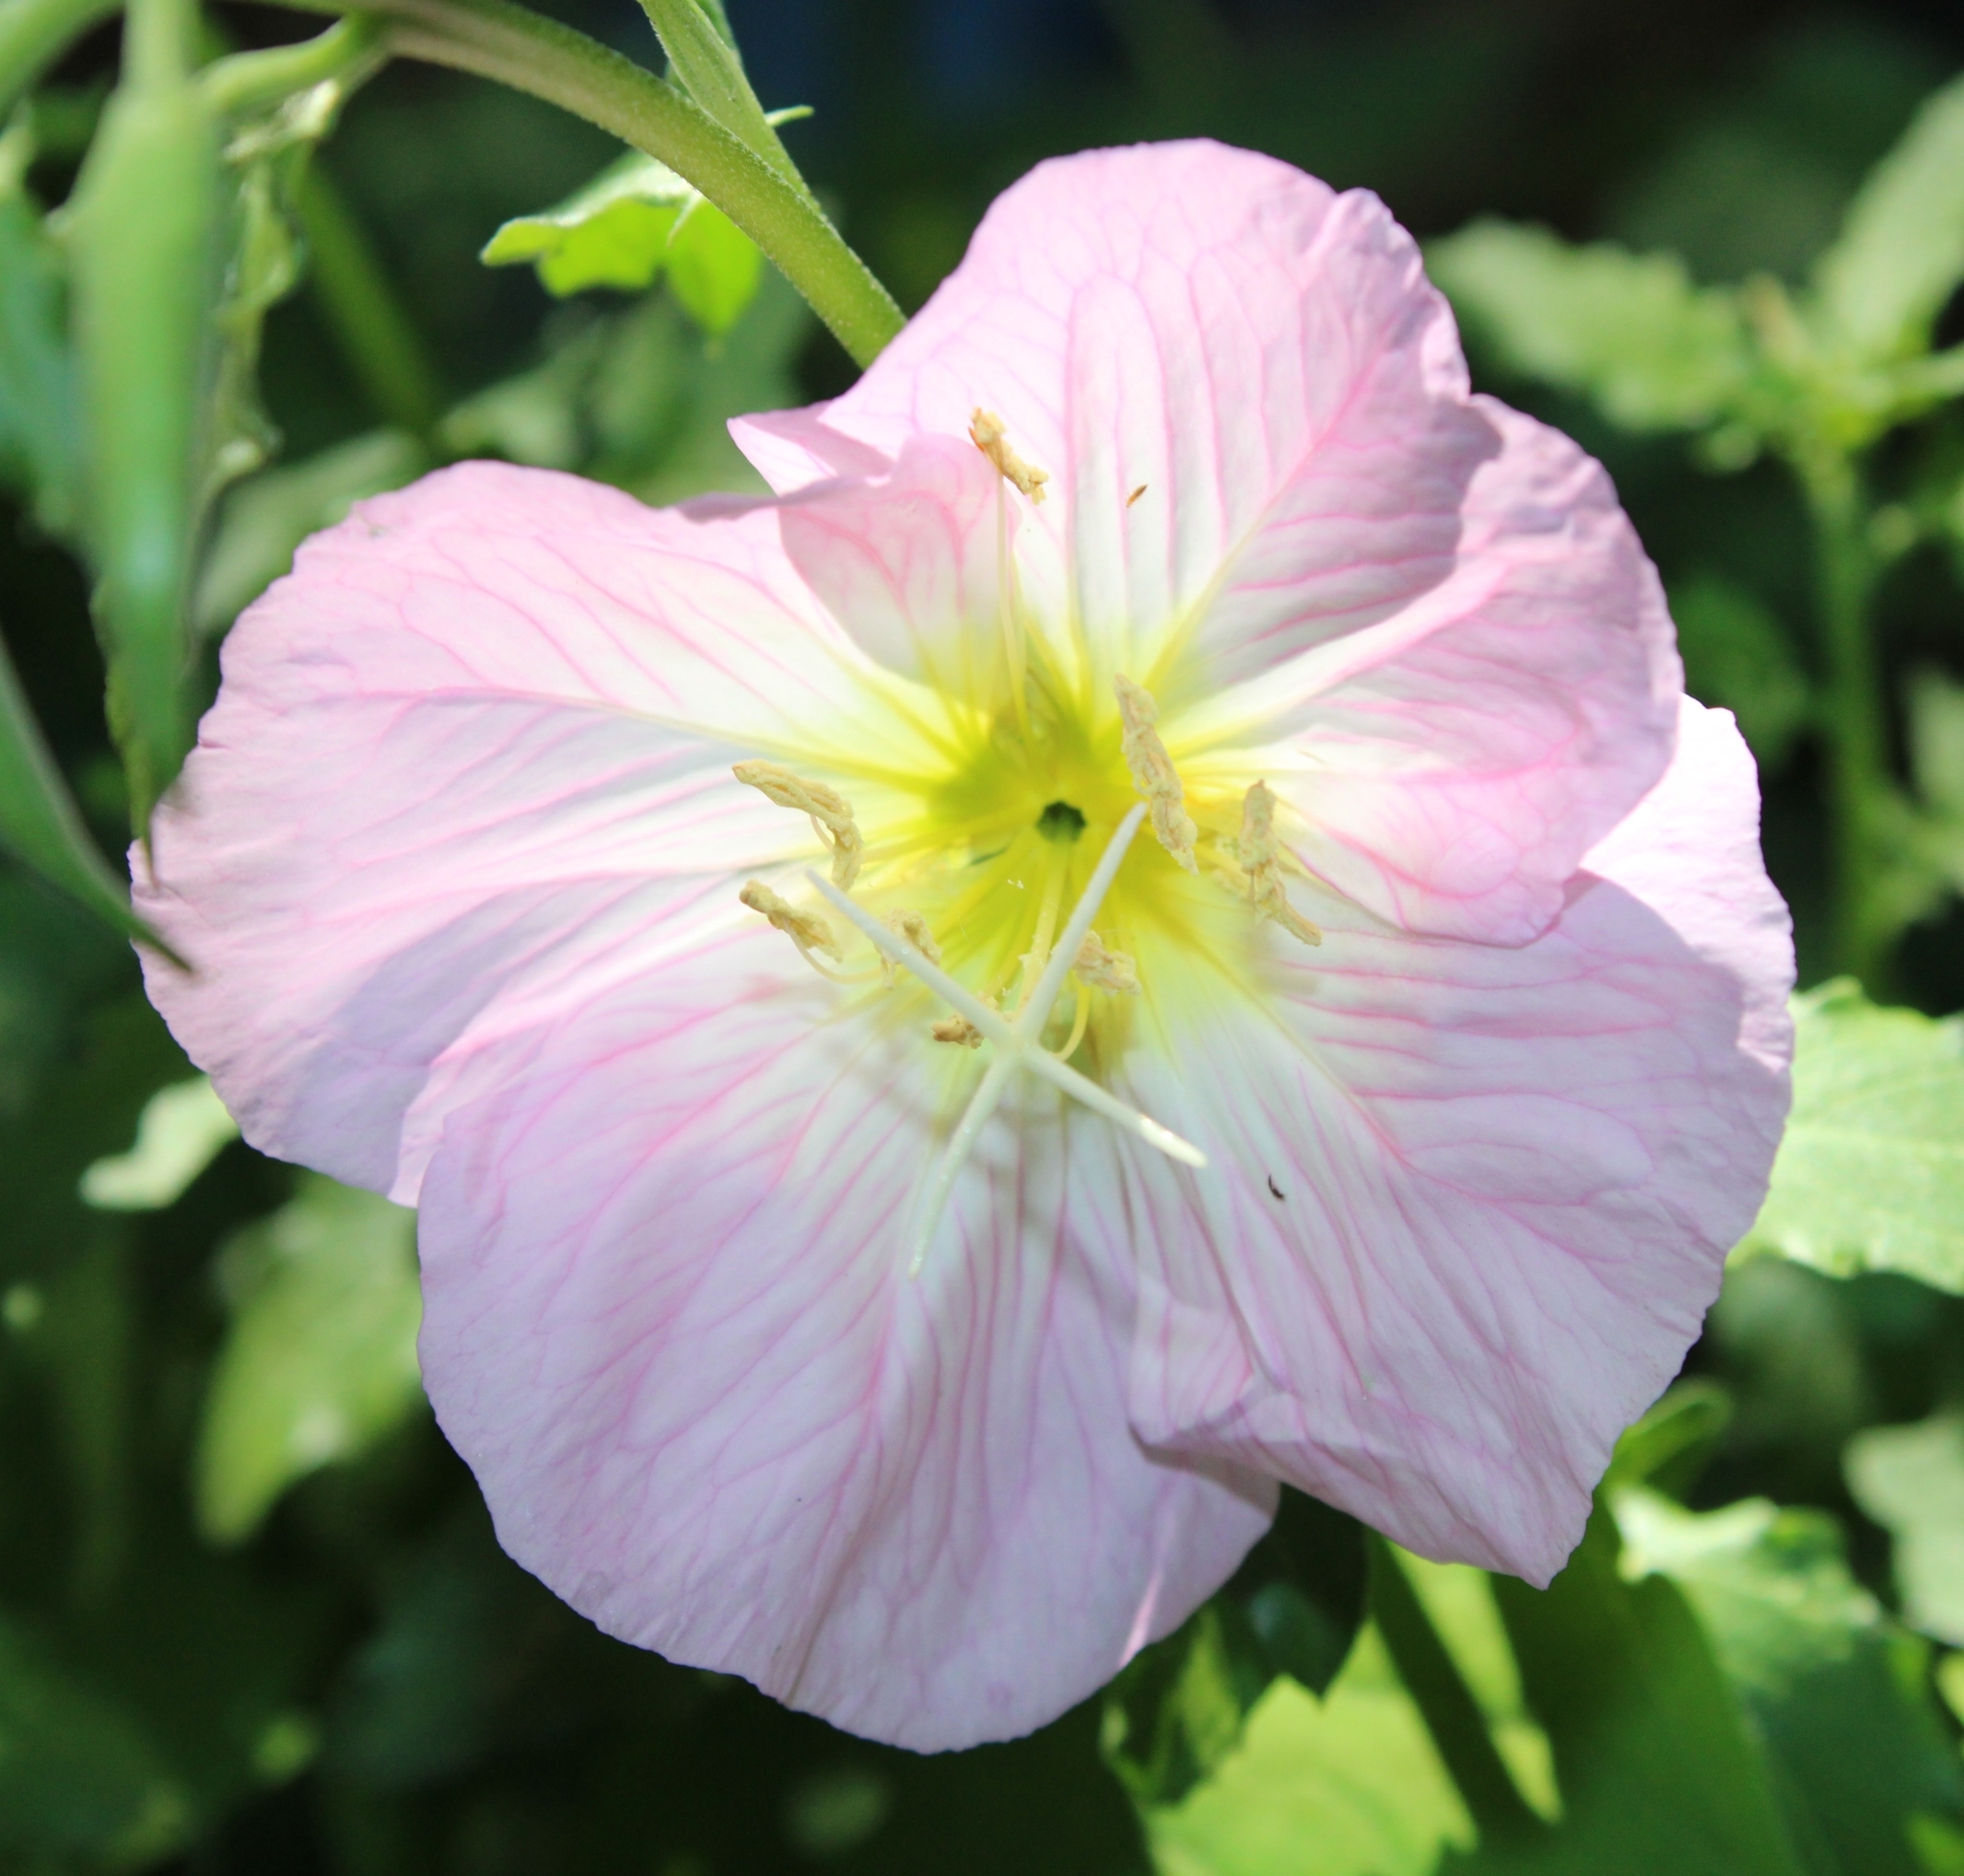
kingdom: Plantae
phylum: Tracheophyta
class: Magnoliopsida
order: Myrtales
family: Onagraceae
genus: Oenothera
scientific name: Oenothera speciosa
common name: White evening-primrose
